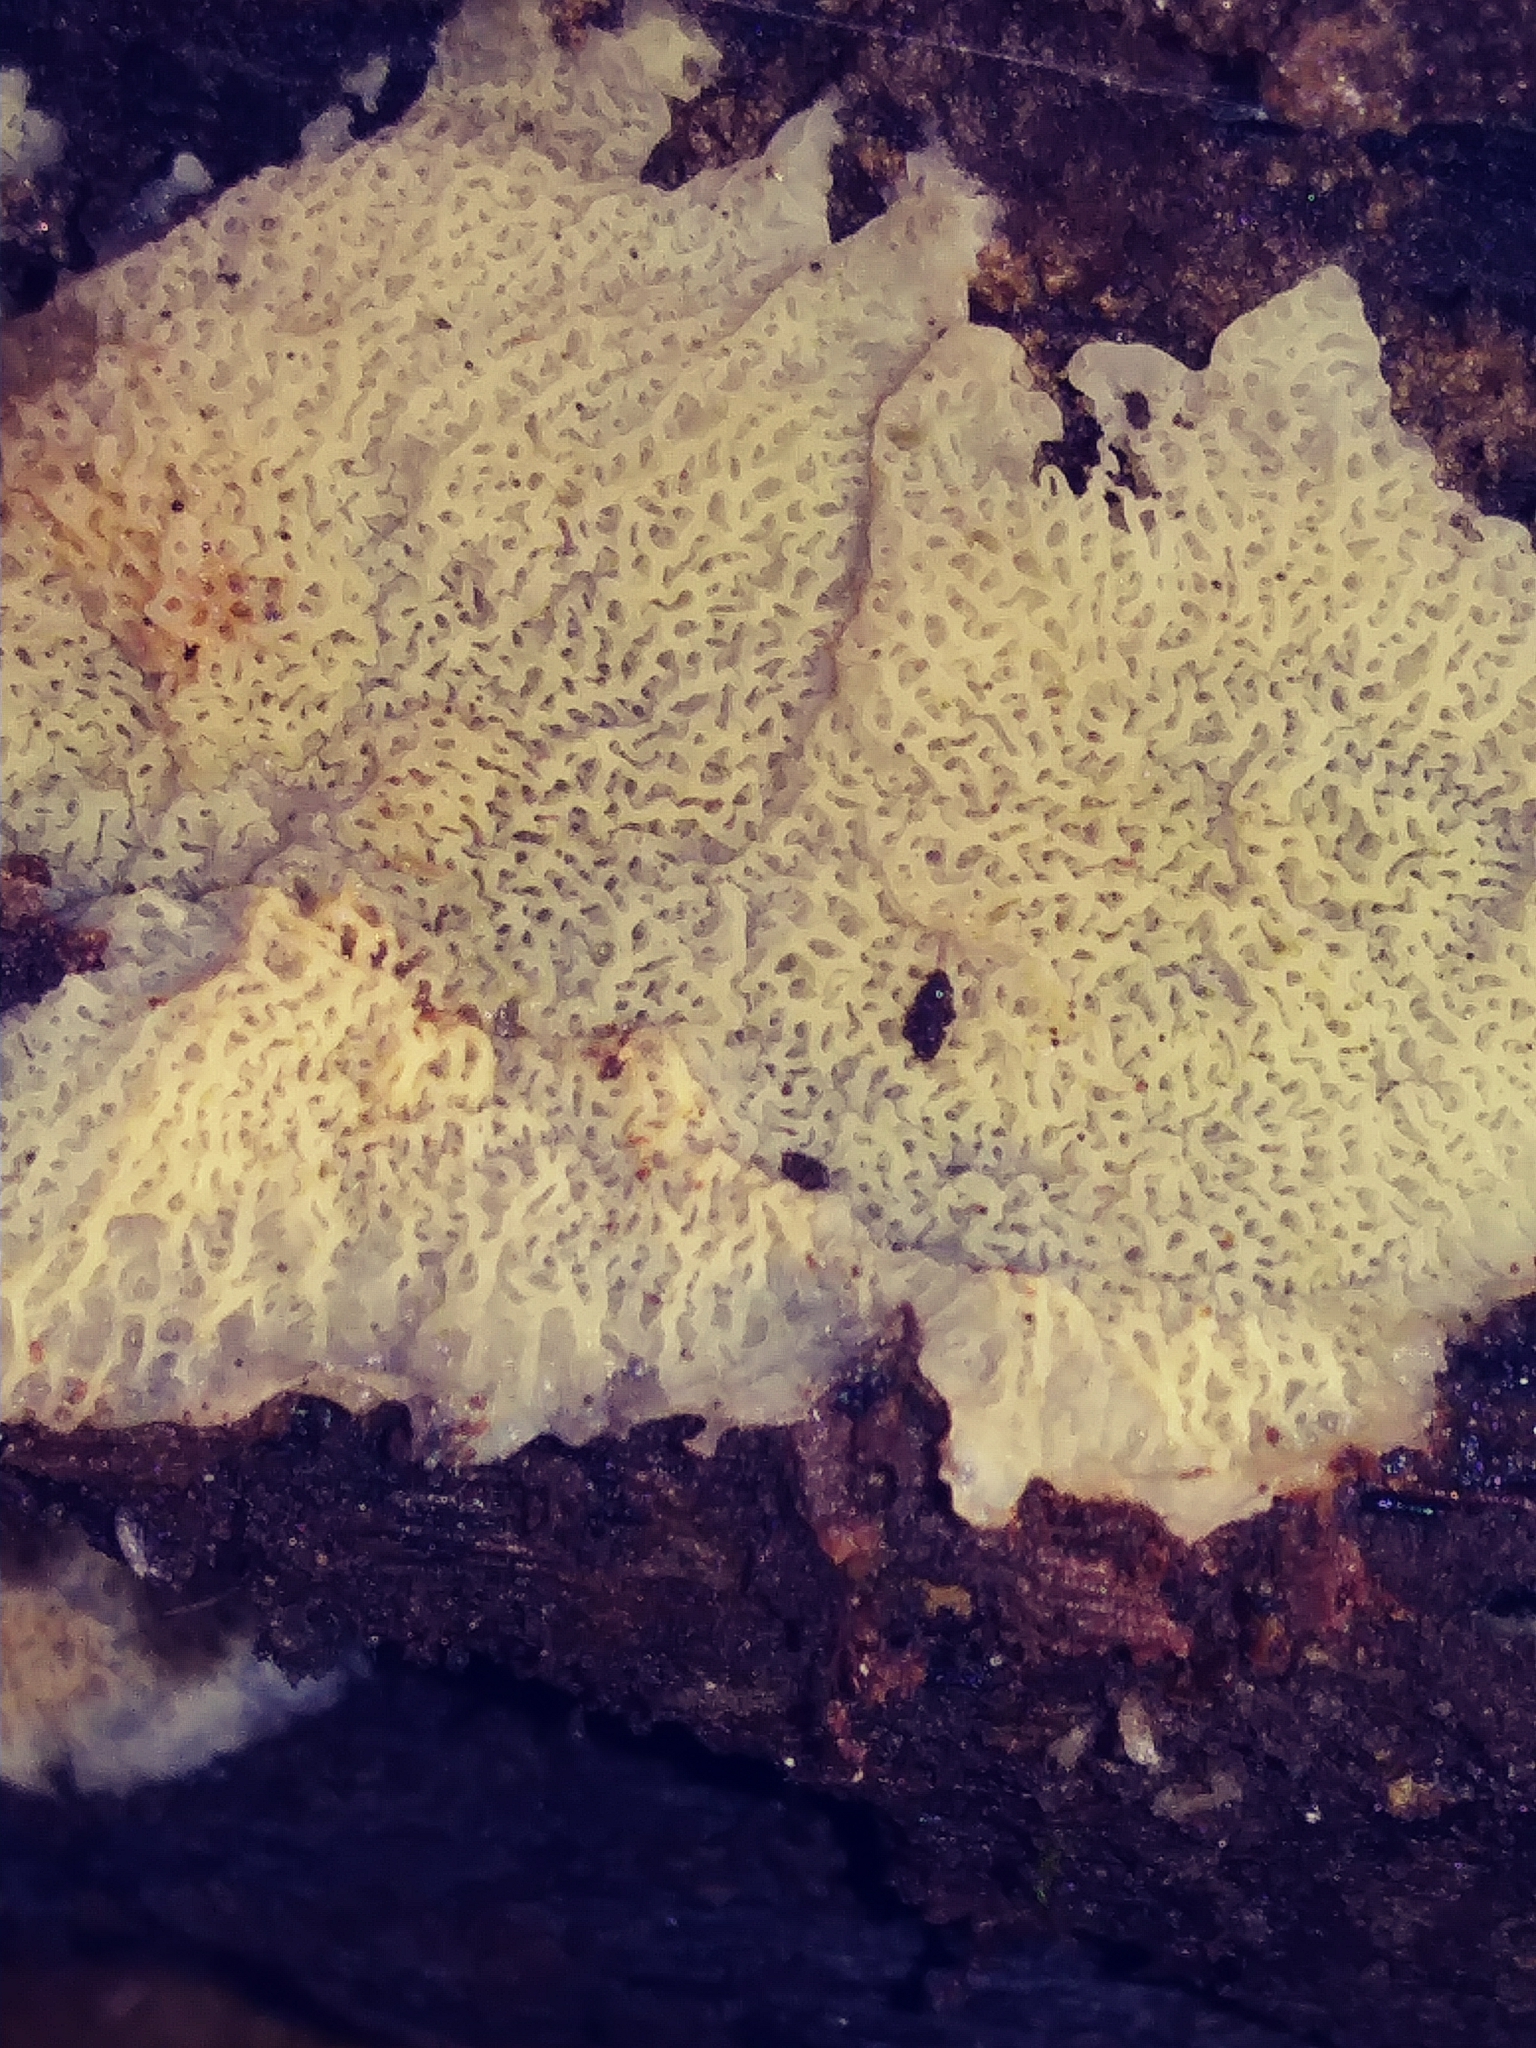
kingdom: Fungi
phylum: Basidiomycota
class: Agaricomycetes
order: Polyporales
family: Meruliaceae
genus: Phlebia
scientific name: Phlebia tremellosa
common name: Jelly rot
